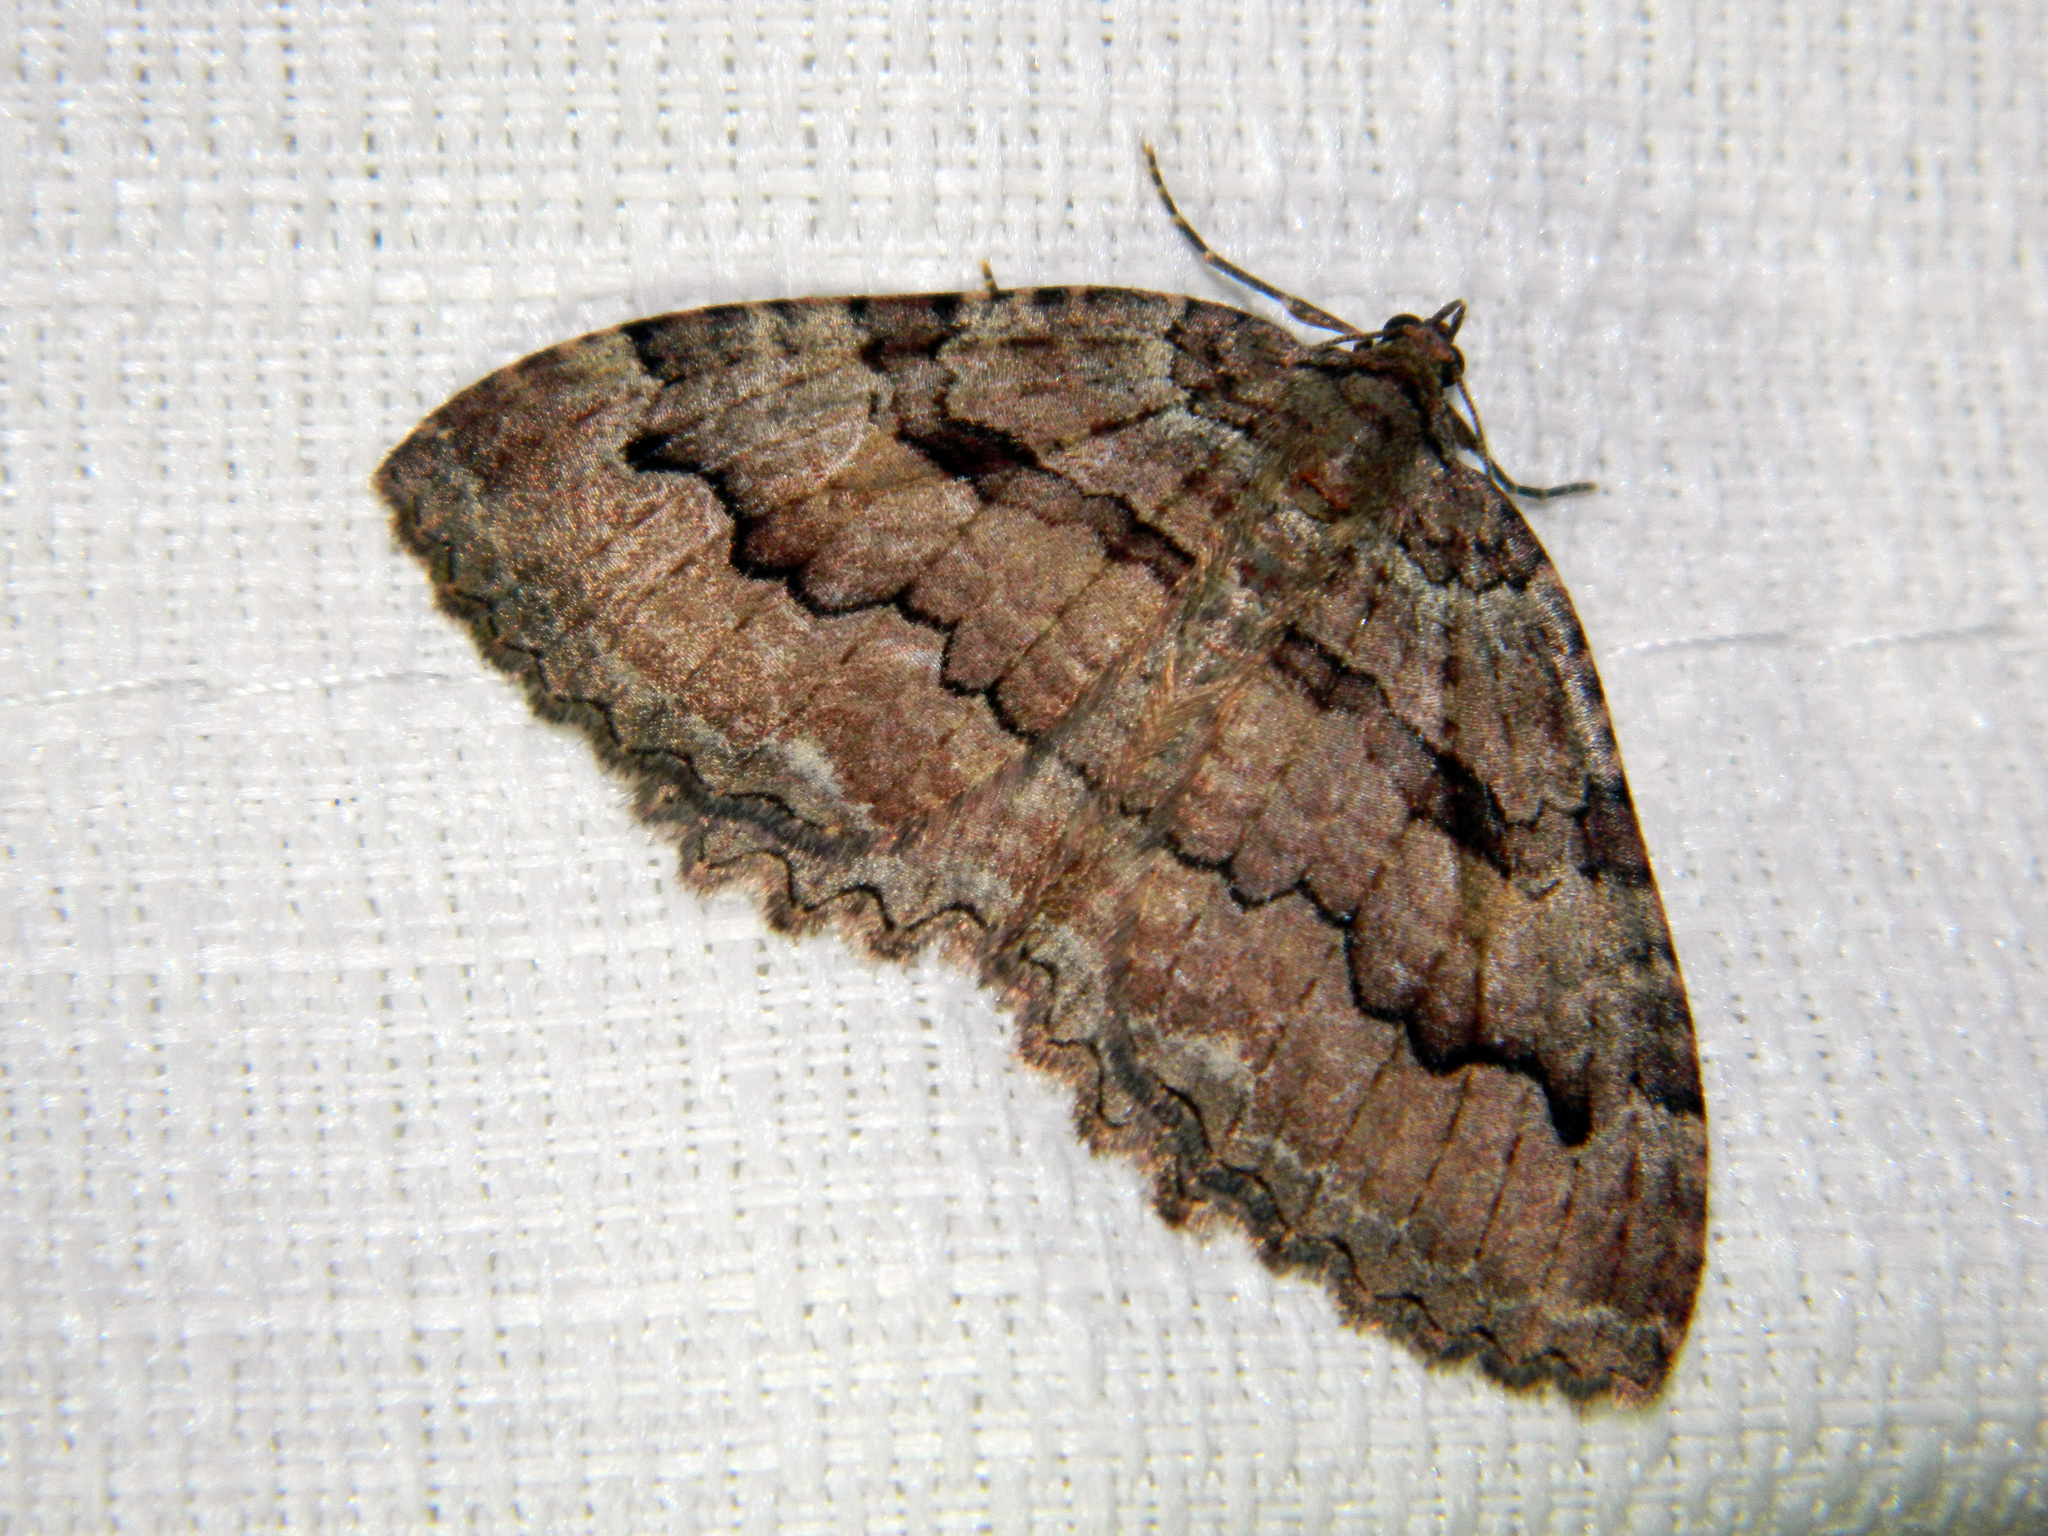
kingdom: Animalia
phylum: Arthropoda
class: Insecta
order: Lepidoptera
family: Geometridae
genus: Triphosa
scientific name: Triphosa haesitata
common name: Tissue moth
